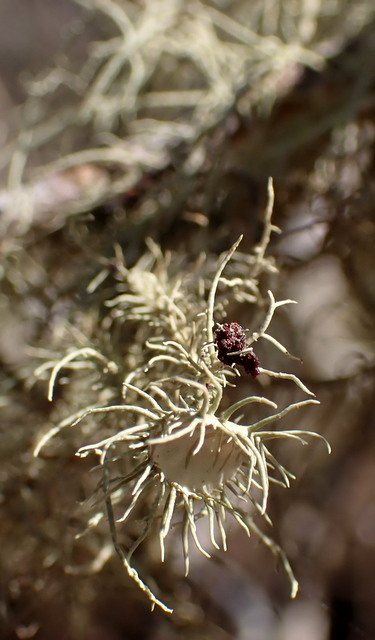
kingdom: Fungi
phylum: Ascomycota
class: Lecanoromycetes
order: Lecanorales
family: Parmeliaceae
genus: Usnea
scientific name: Usnea strigosa
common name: Bushy beard lichen
